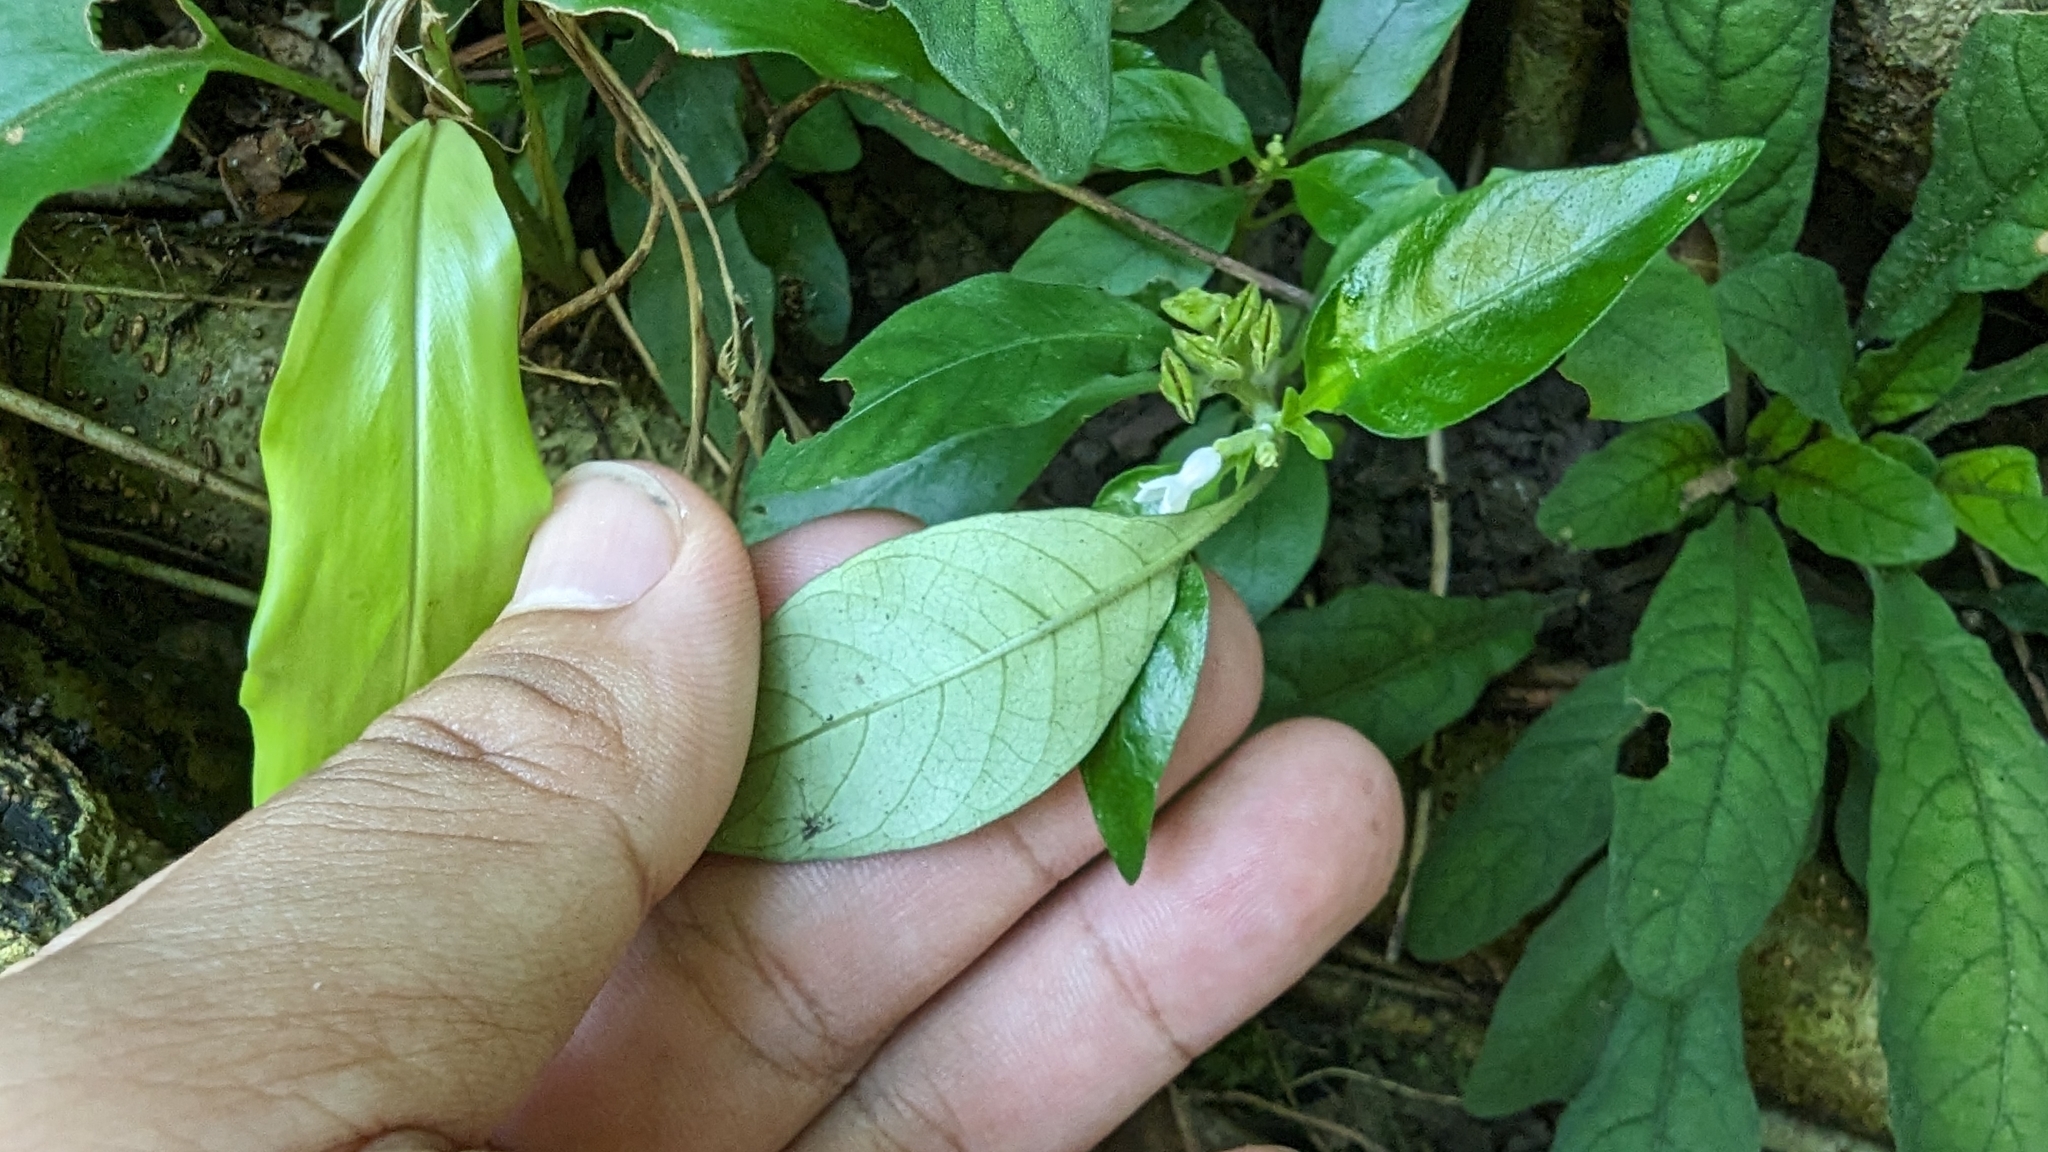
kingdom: Plantae
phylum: Tracheophyta
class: Magnoliopsida
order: Gentianales
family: Rubiaceae
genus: Ophiorrhiza
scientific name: Ophiorrhiza pumila
